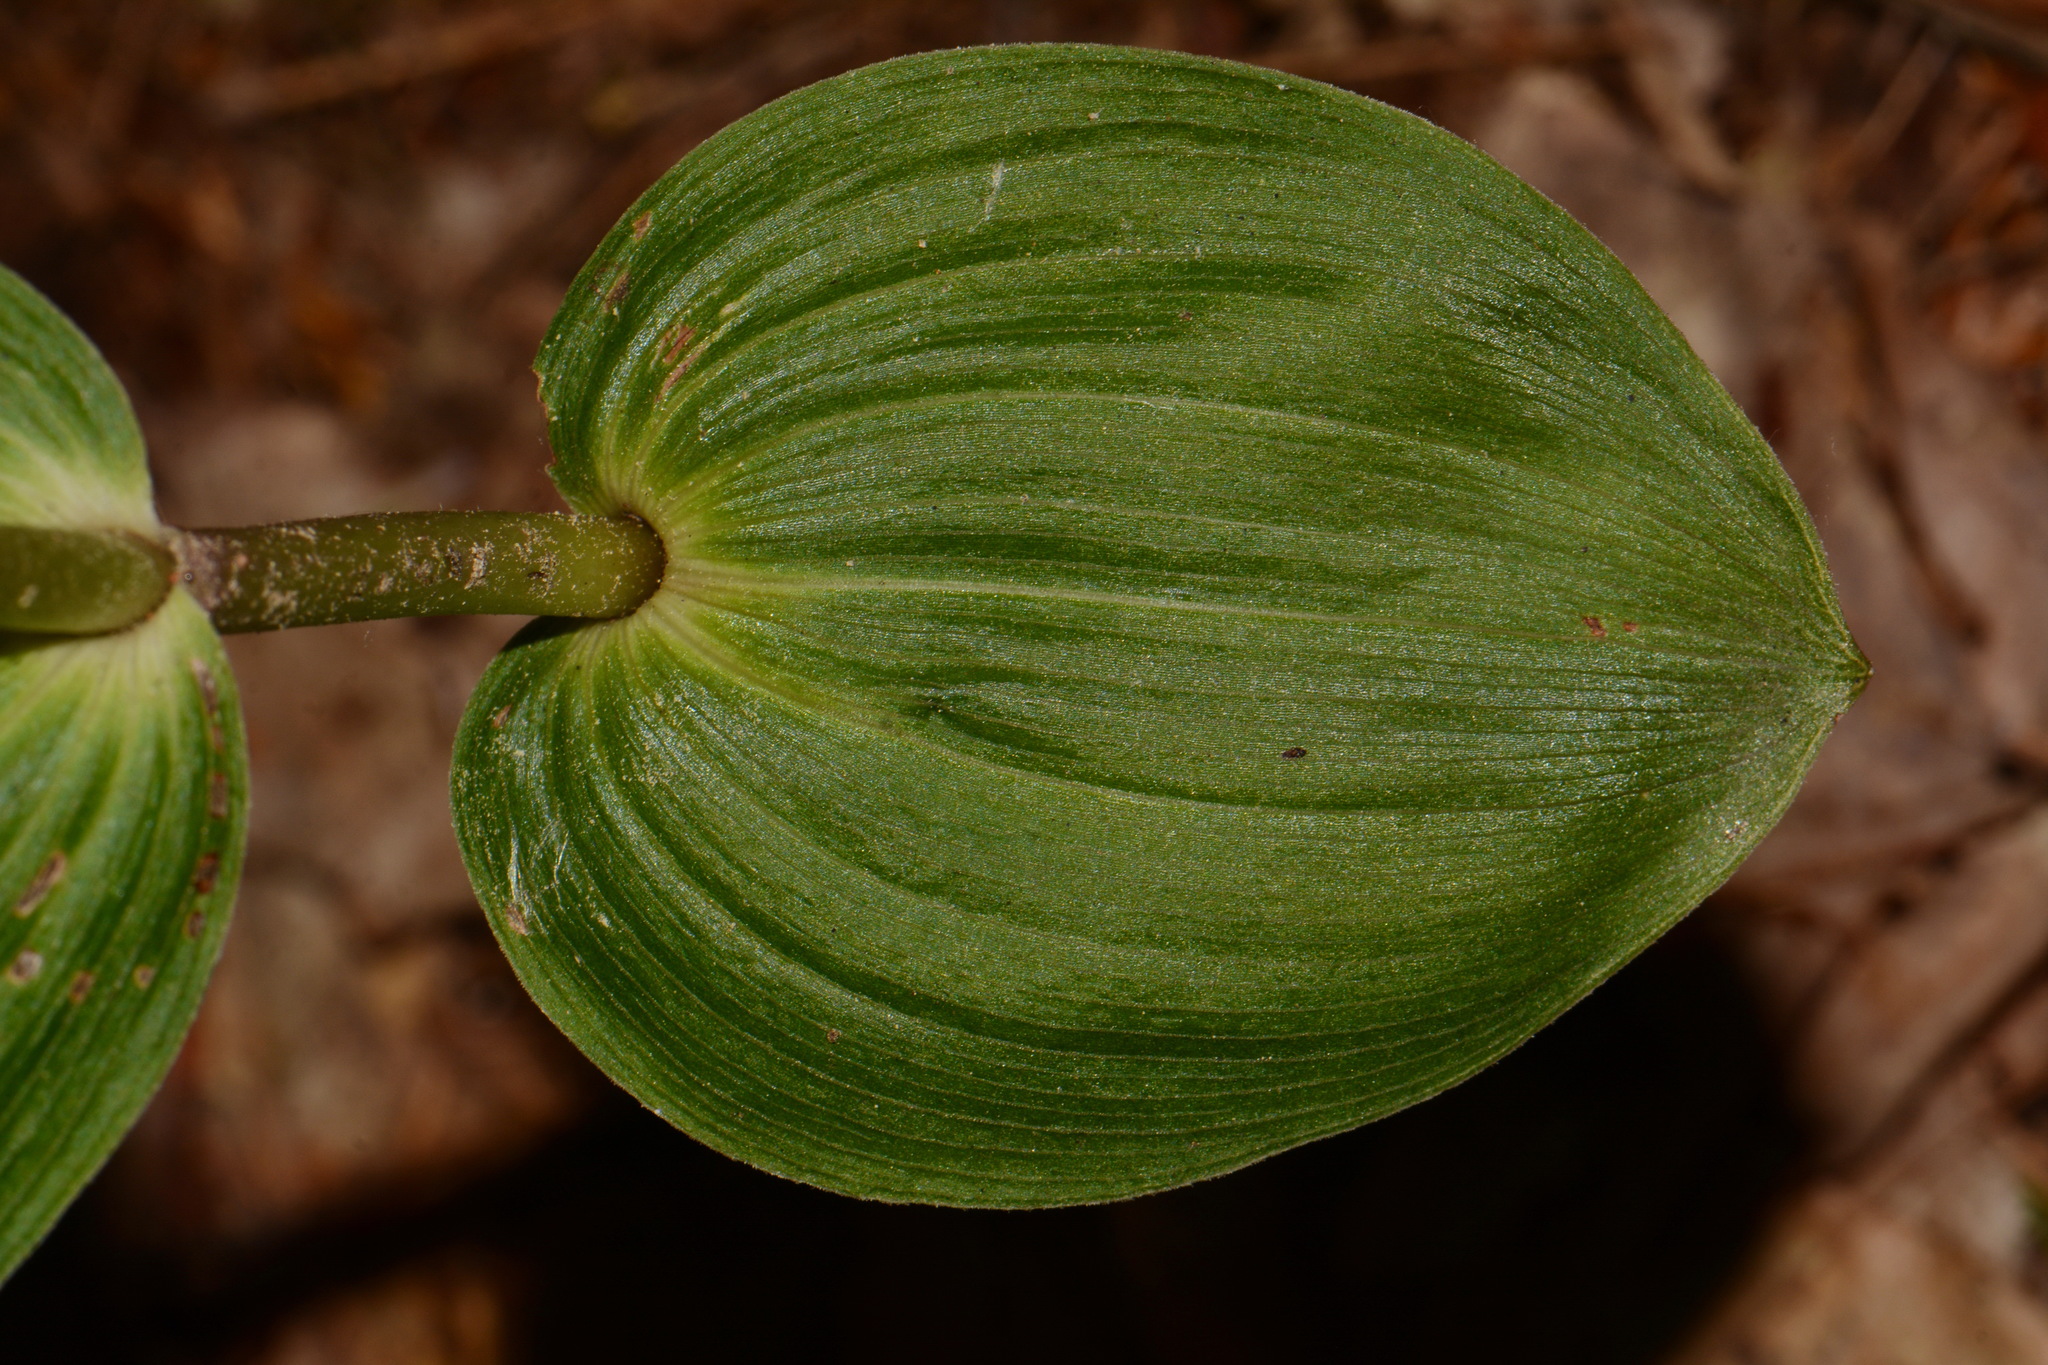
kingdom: Plantae
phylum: Tracheophyta
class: Liliopsida
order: Asparagales
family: Orchidaceae
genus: Epipactis
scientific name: Epipactis helleborine
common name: Broad-leaved helleborine
